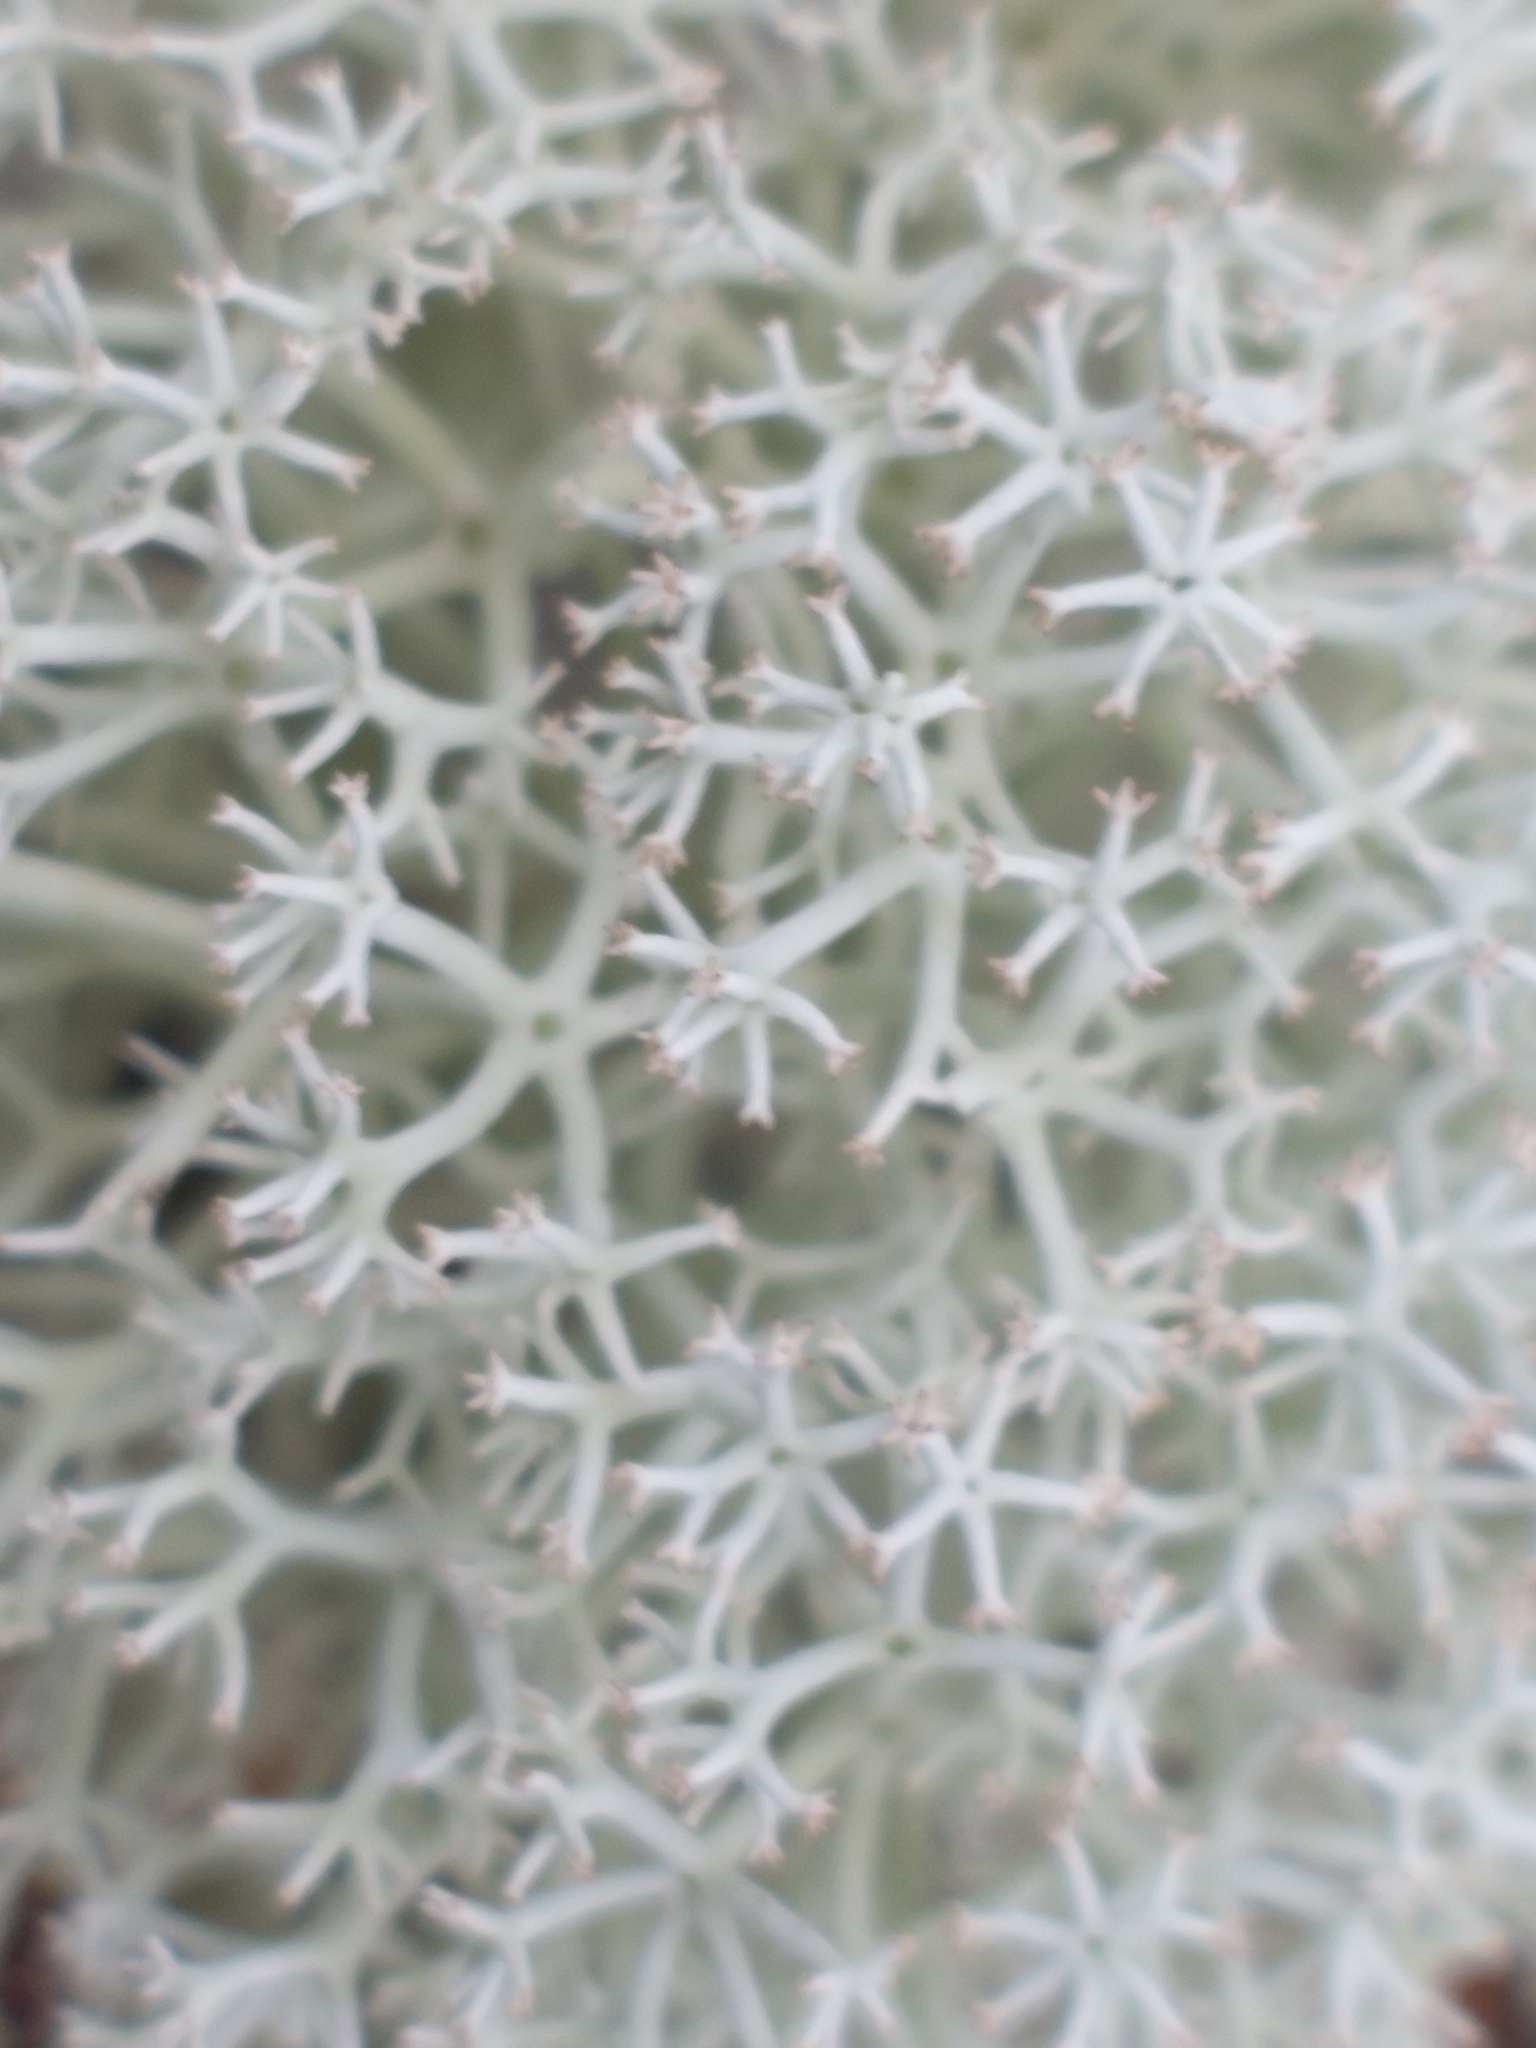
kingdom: Fungi
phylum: Ascomycota
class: Lecanoromycetes
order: Lecanorales
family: Cladoniaceae
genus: Cladonia
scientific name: Cladonia stellaris
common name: Star-tipped reindeer lichen
